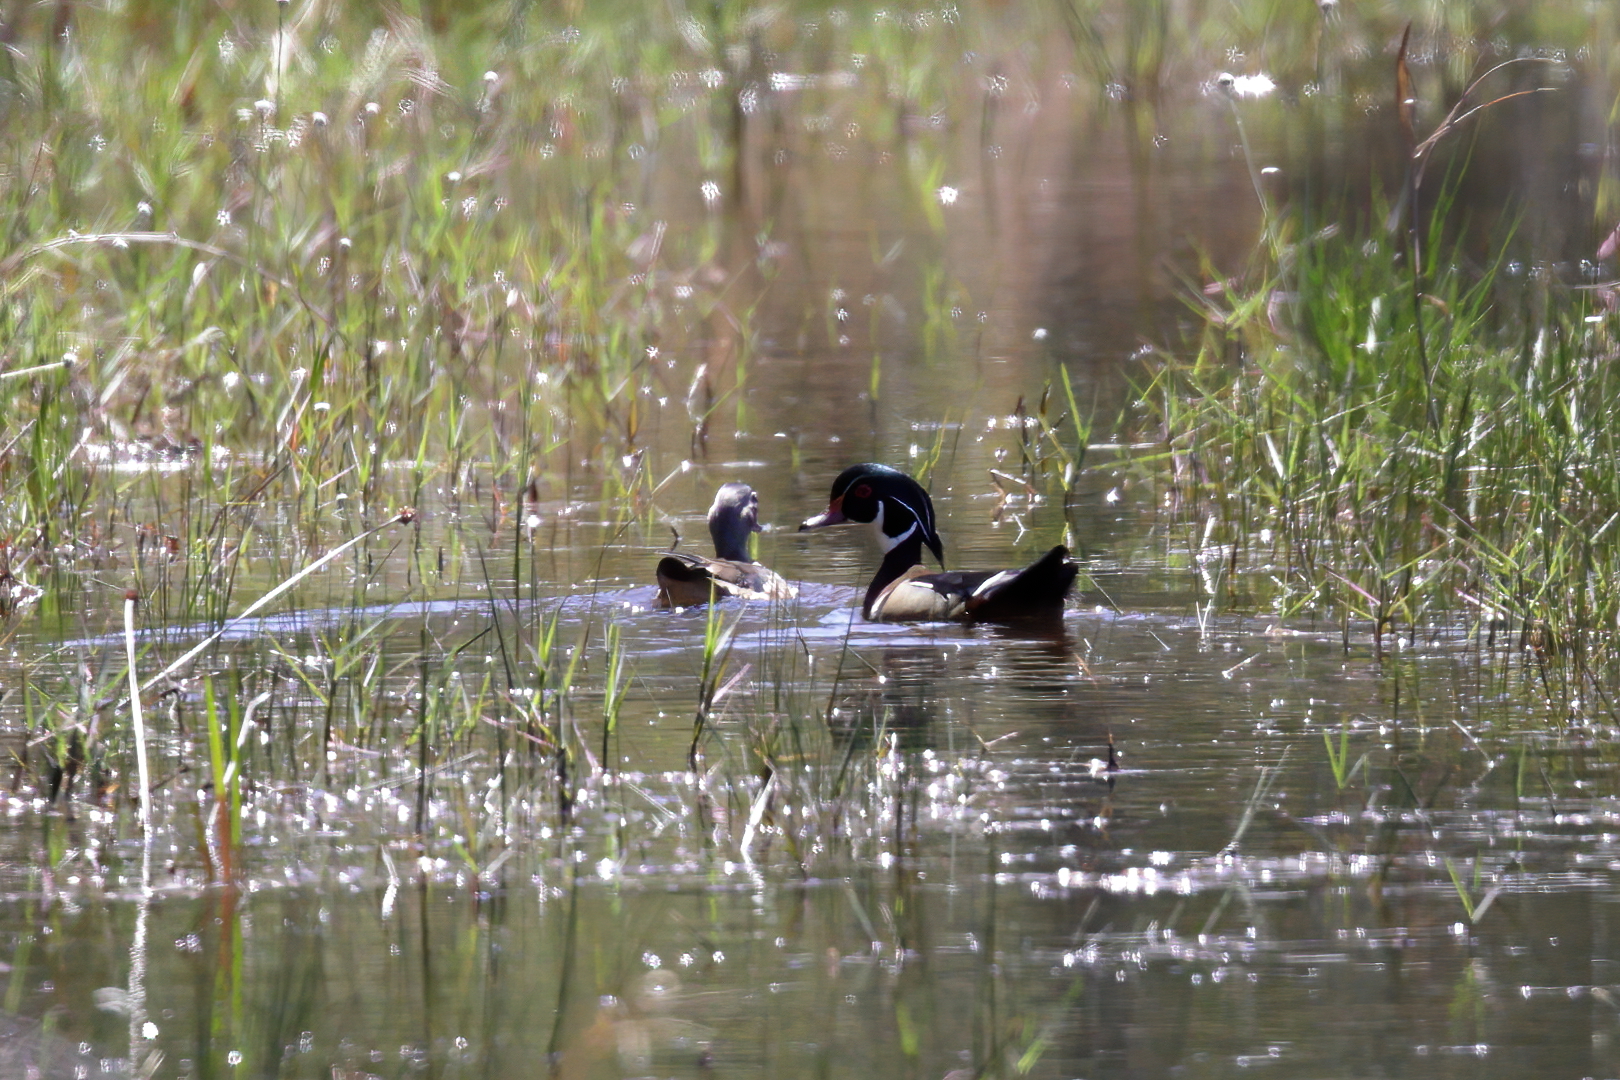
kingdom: Animalia
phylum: Chordata
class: Aves
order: Anseriformes
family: Anatidae
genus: Aix
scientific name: Aix sponsa
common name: Wood duck
